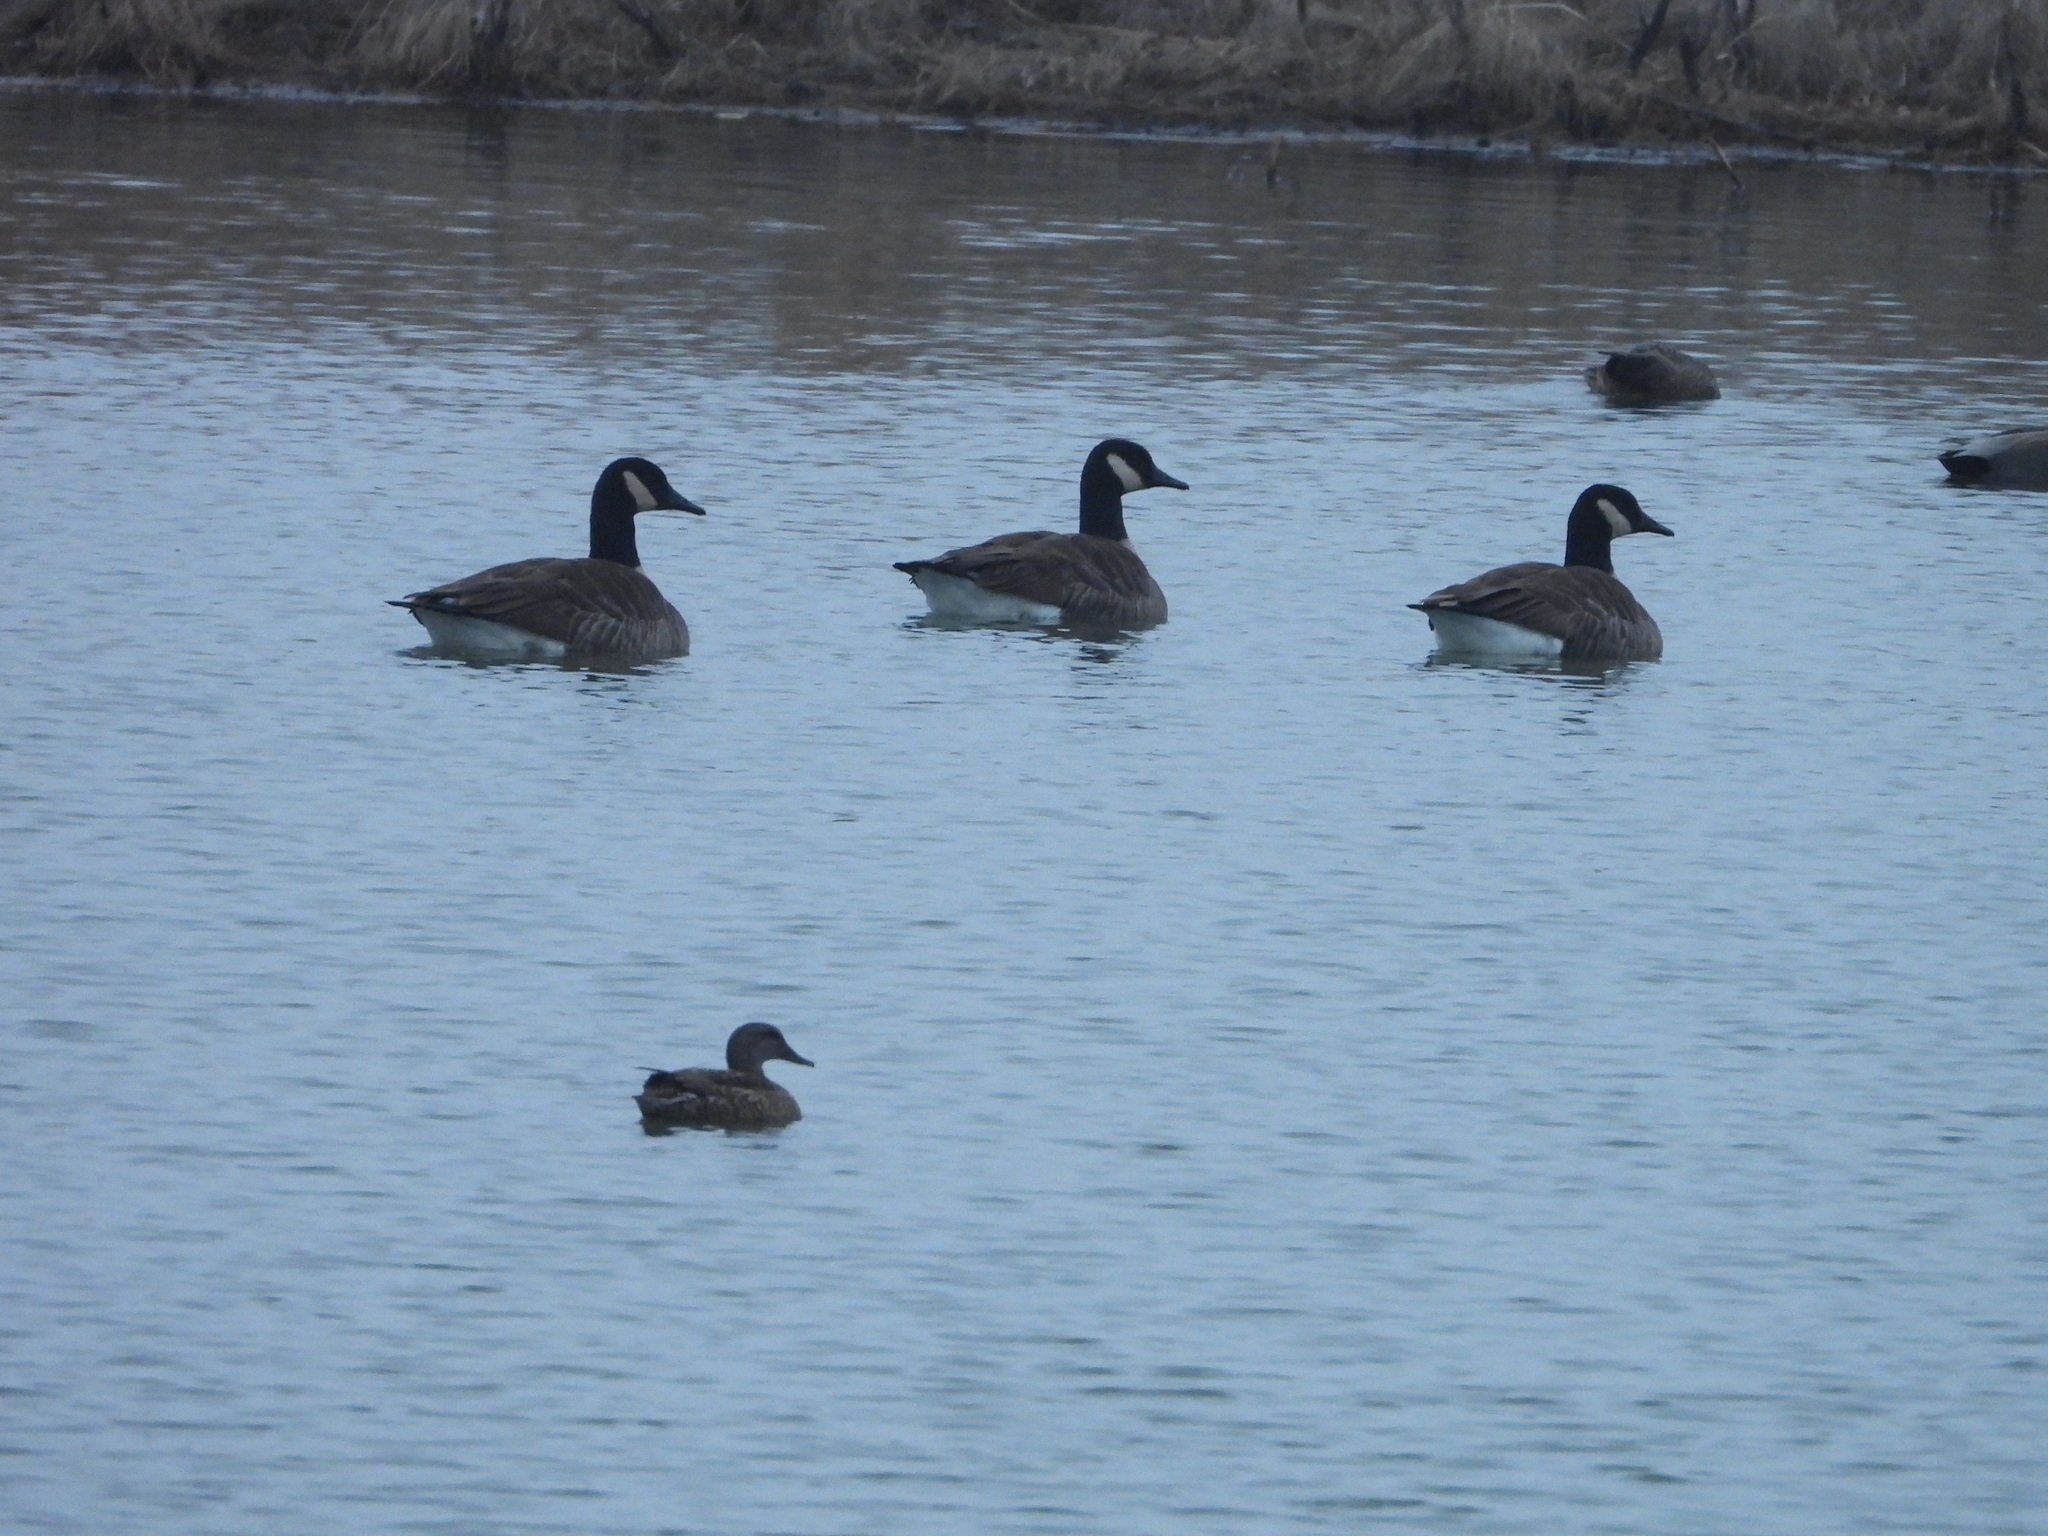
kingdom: Animalia
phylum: Chordata
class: Aves
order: Anseriformes
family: Anatidae
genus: Branta
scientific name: Branta canadensis
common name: Canada goose
